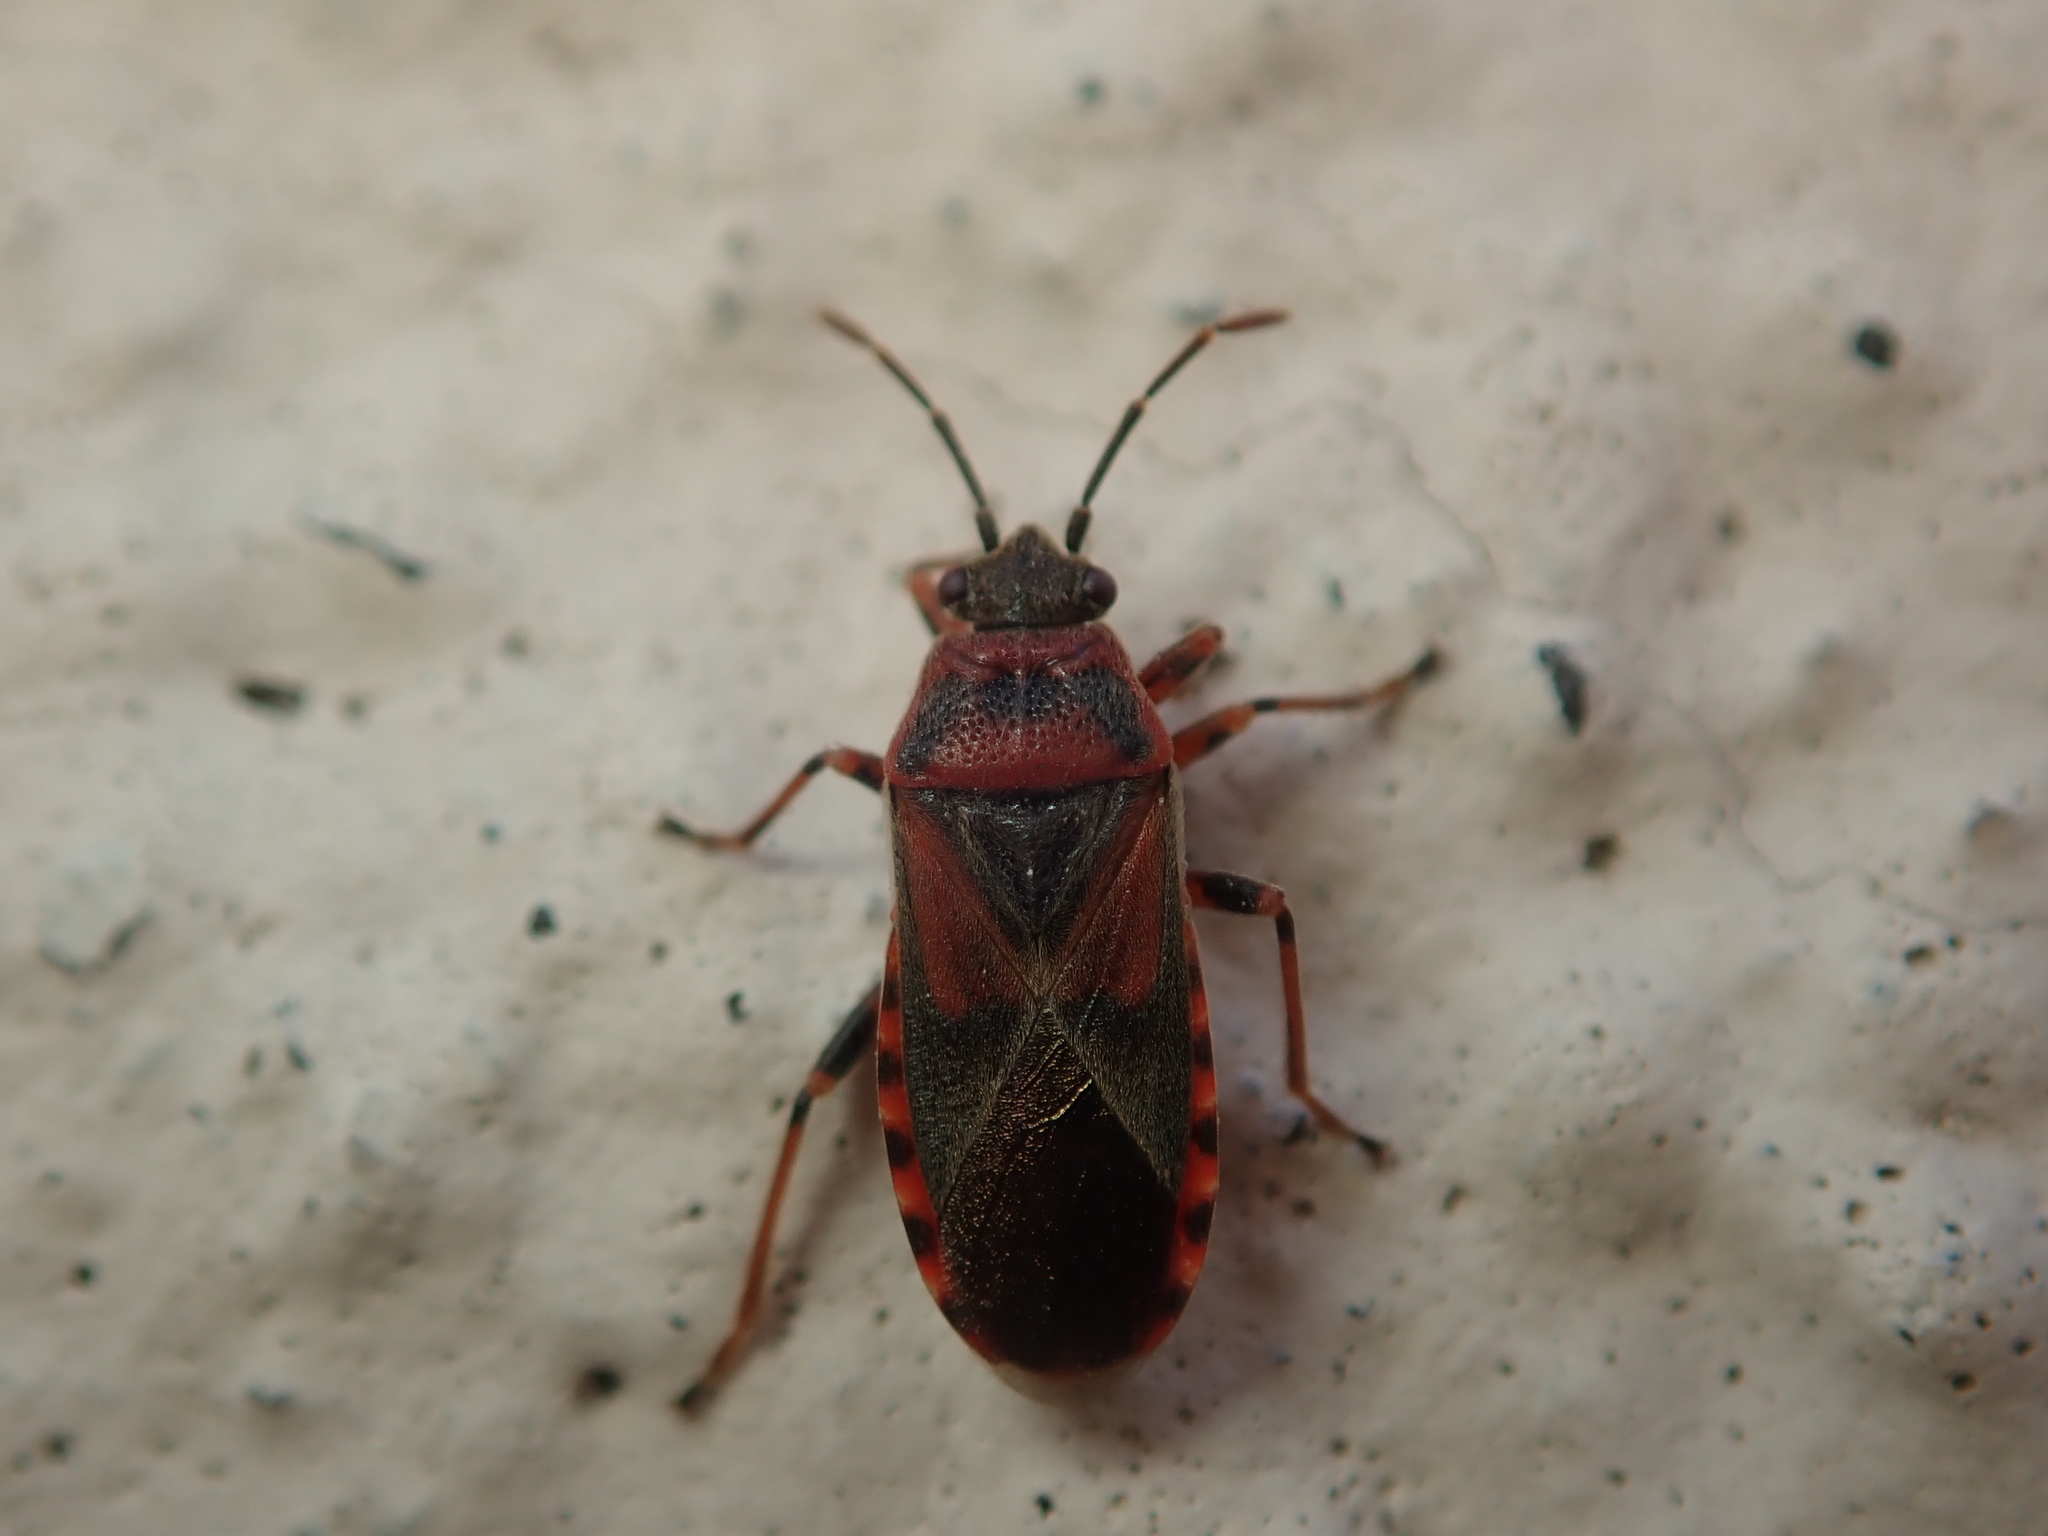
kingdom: Animalia
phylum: Arthropoda
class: Insecta
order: Hemiptera
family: Lygaeidae
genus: Arocatus
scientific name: Arocatus melanocephalus
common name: Lygaeid bug
